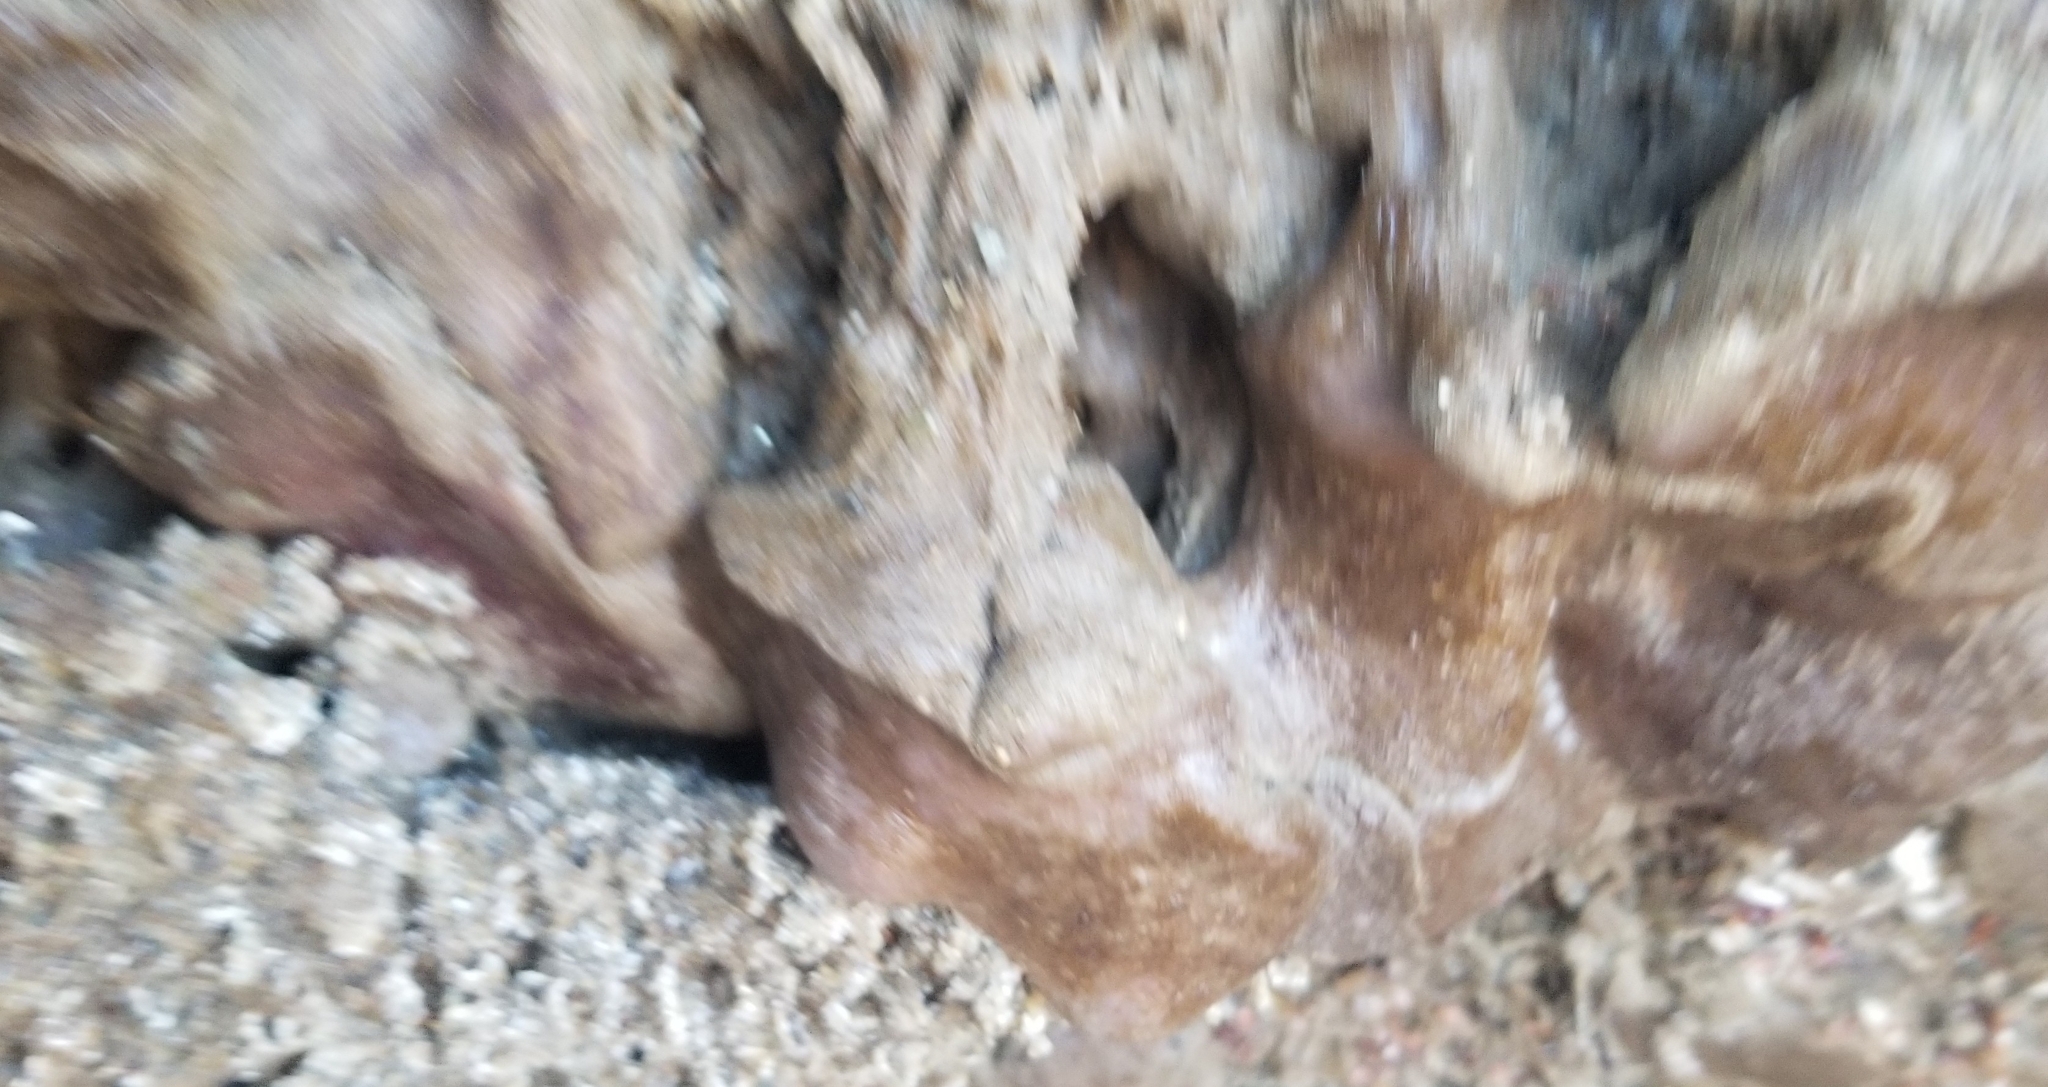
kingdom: Animalia
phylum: Chordata
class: Ascidiacea
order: Aplousobranchia
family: Polycitoridae
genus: Eudistoma
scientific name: Eudistoma psammion
